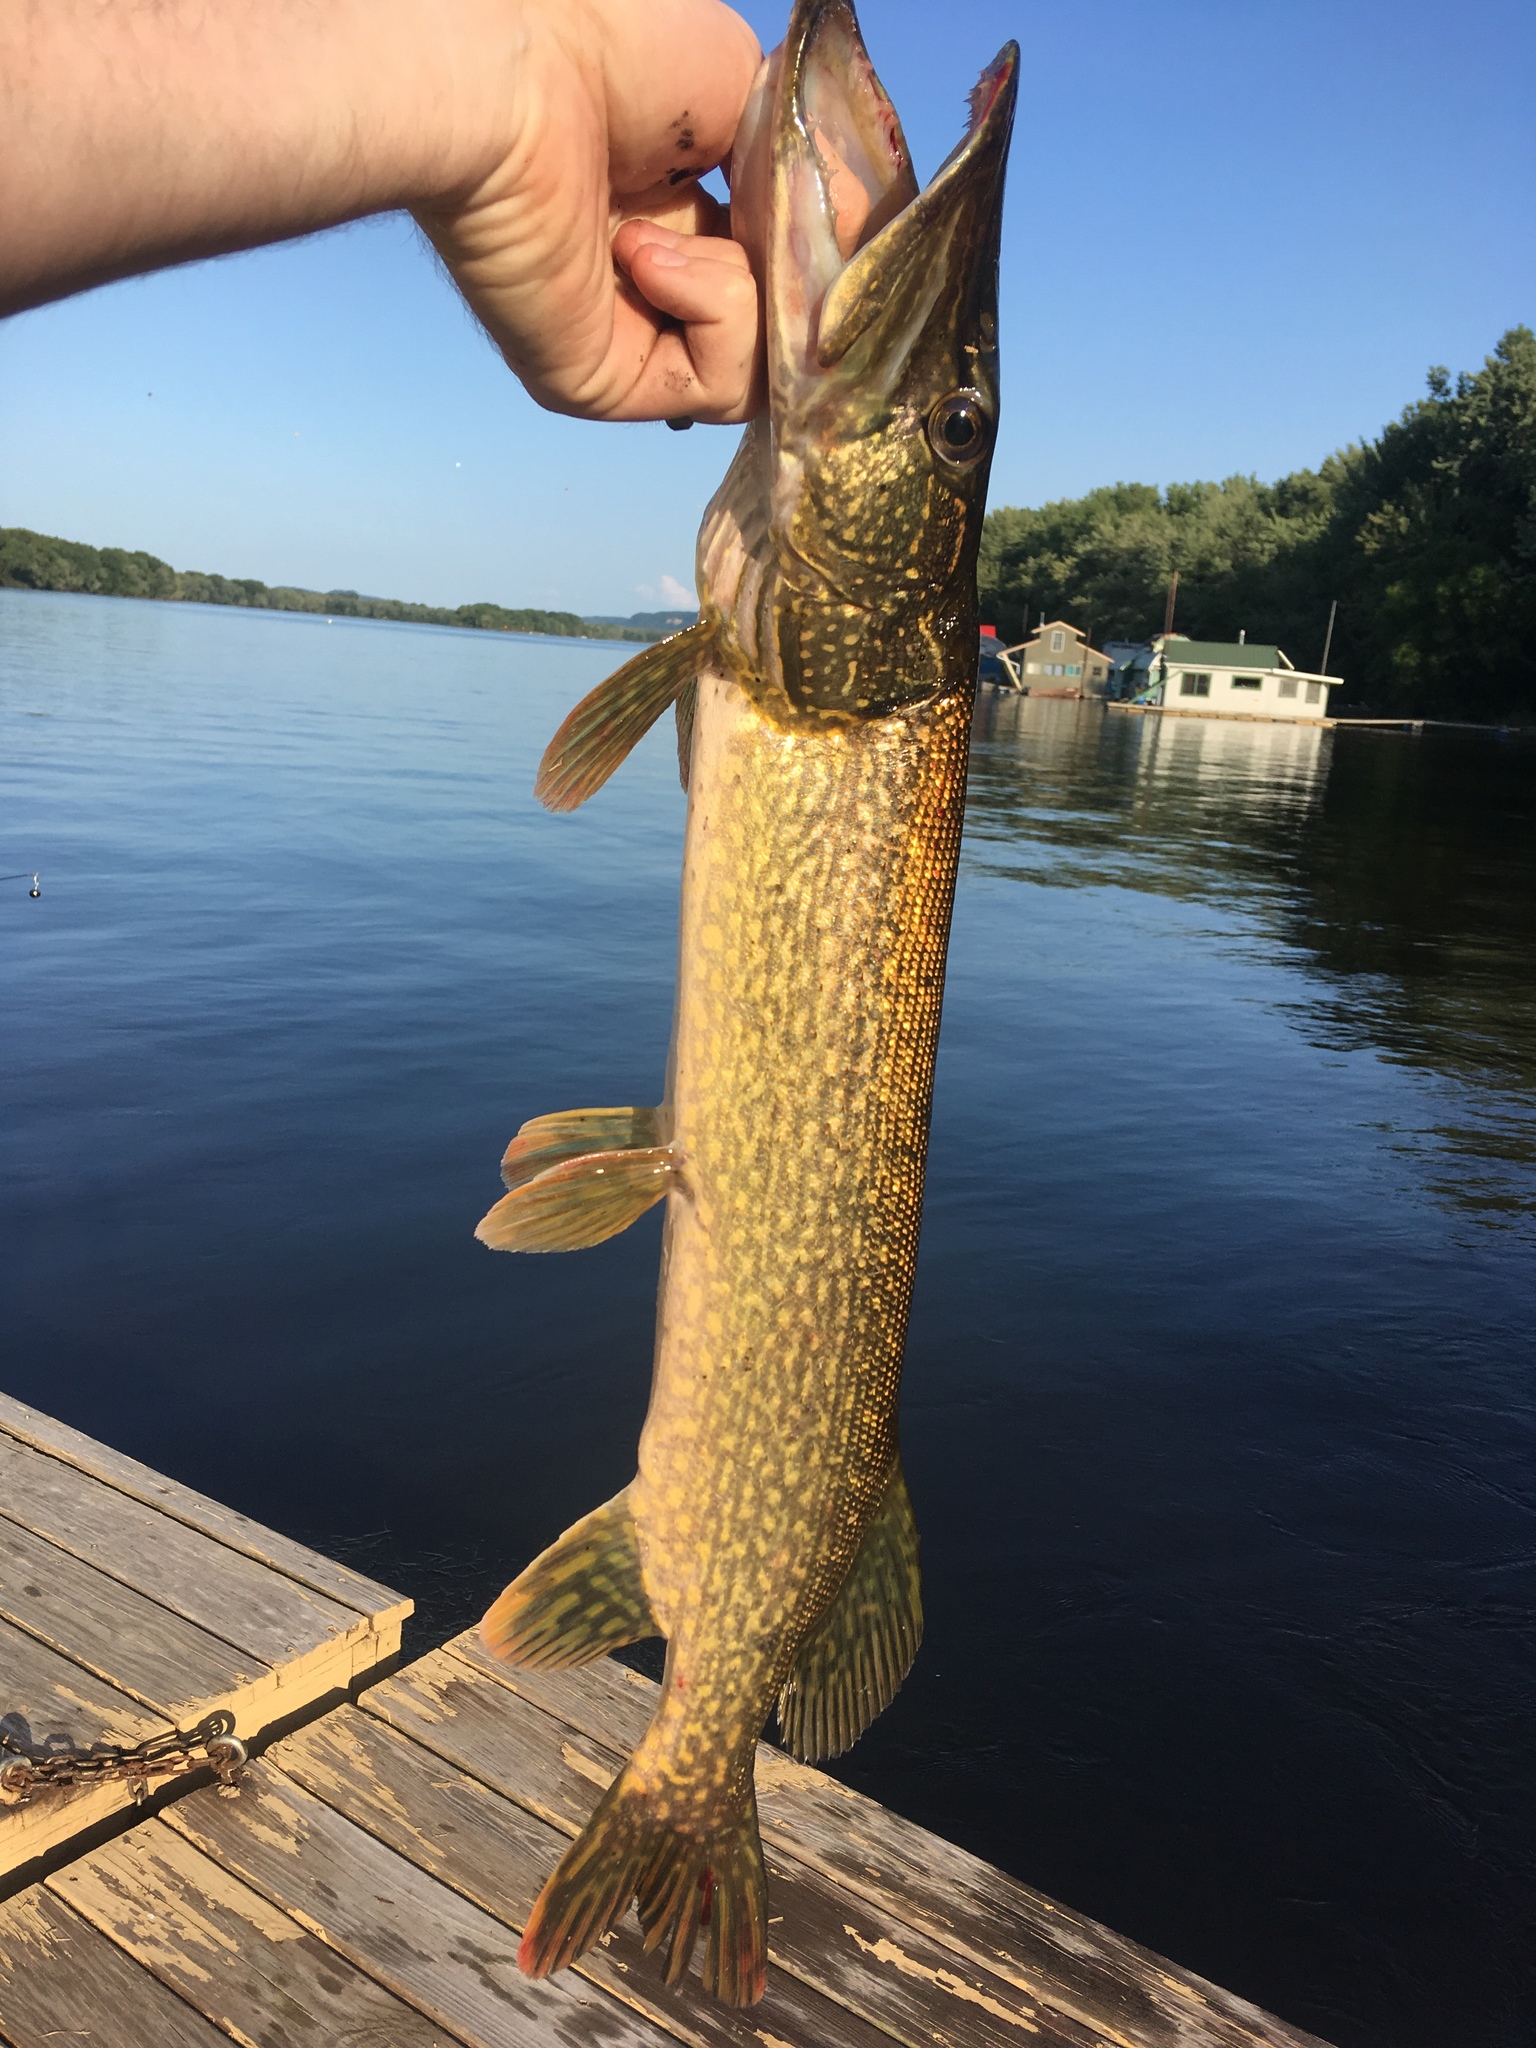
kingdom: Animalia
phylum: Chordata
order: Esociformes
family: Esocidae
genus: Esox
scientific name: Esox lucius
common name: Northern pike
